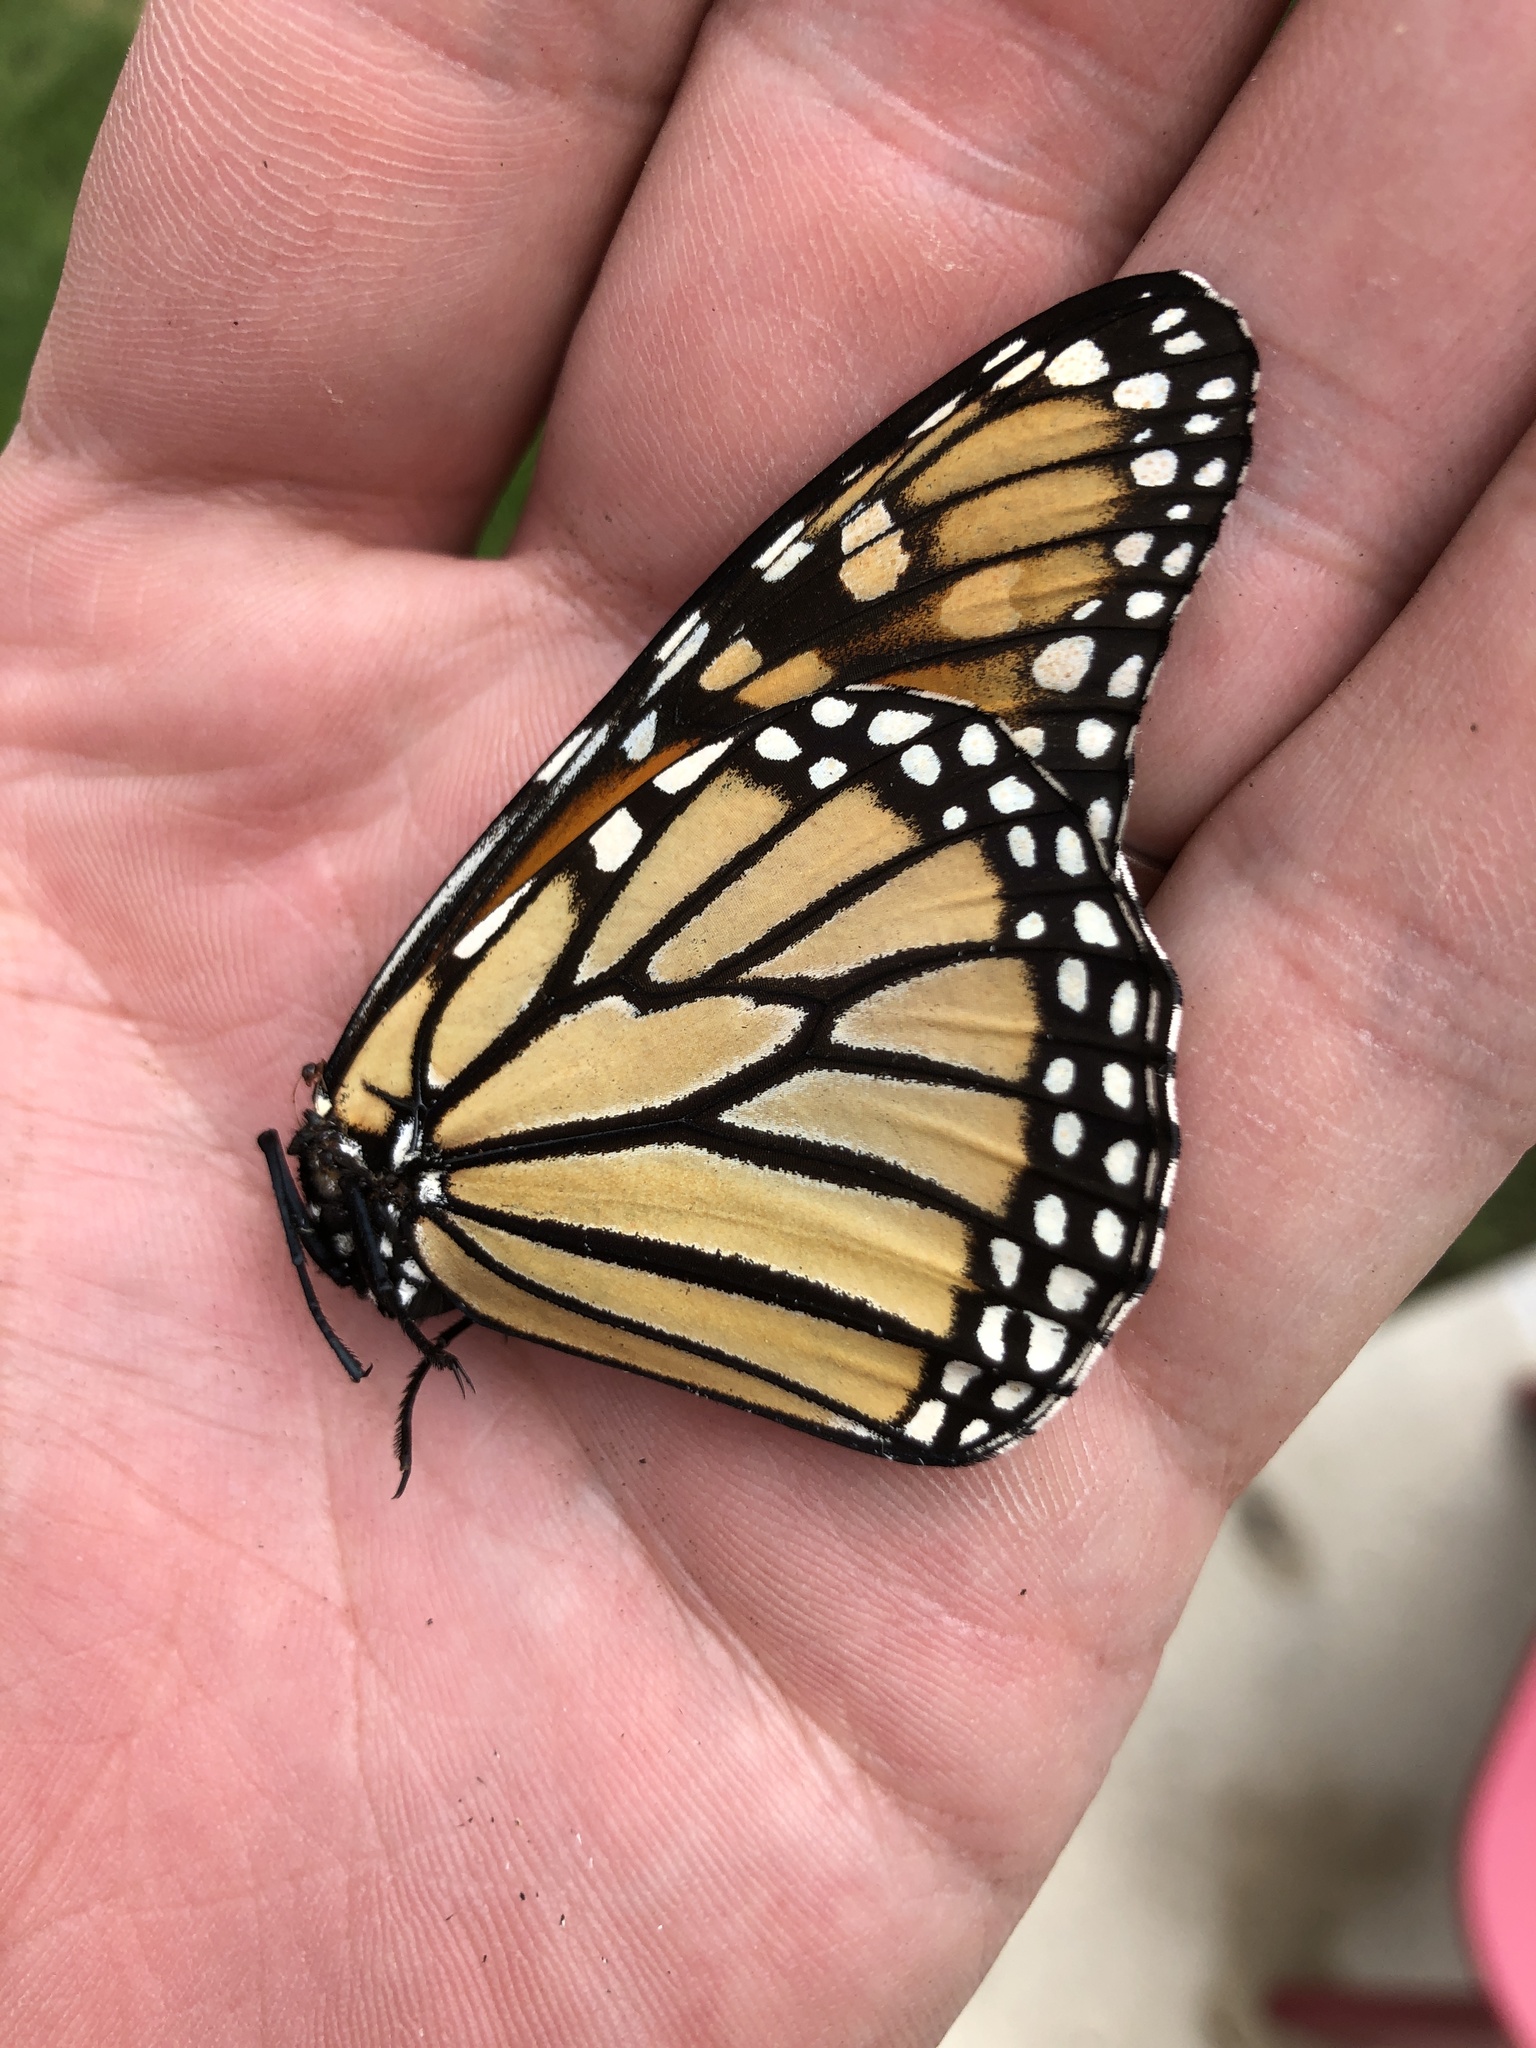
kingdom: Animalia
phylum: Arthropoda
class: Insecta
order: Lepidoptera
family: Nymphalidae
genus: Danaus
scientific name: Danaus plexippus
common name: Monarch
